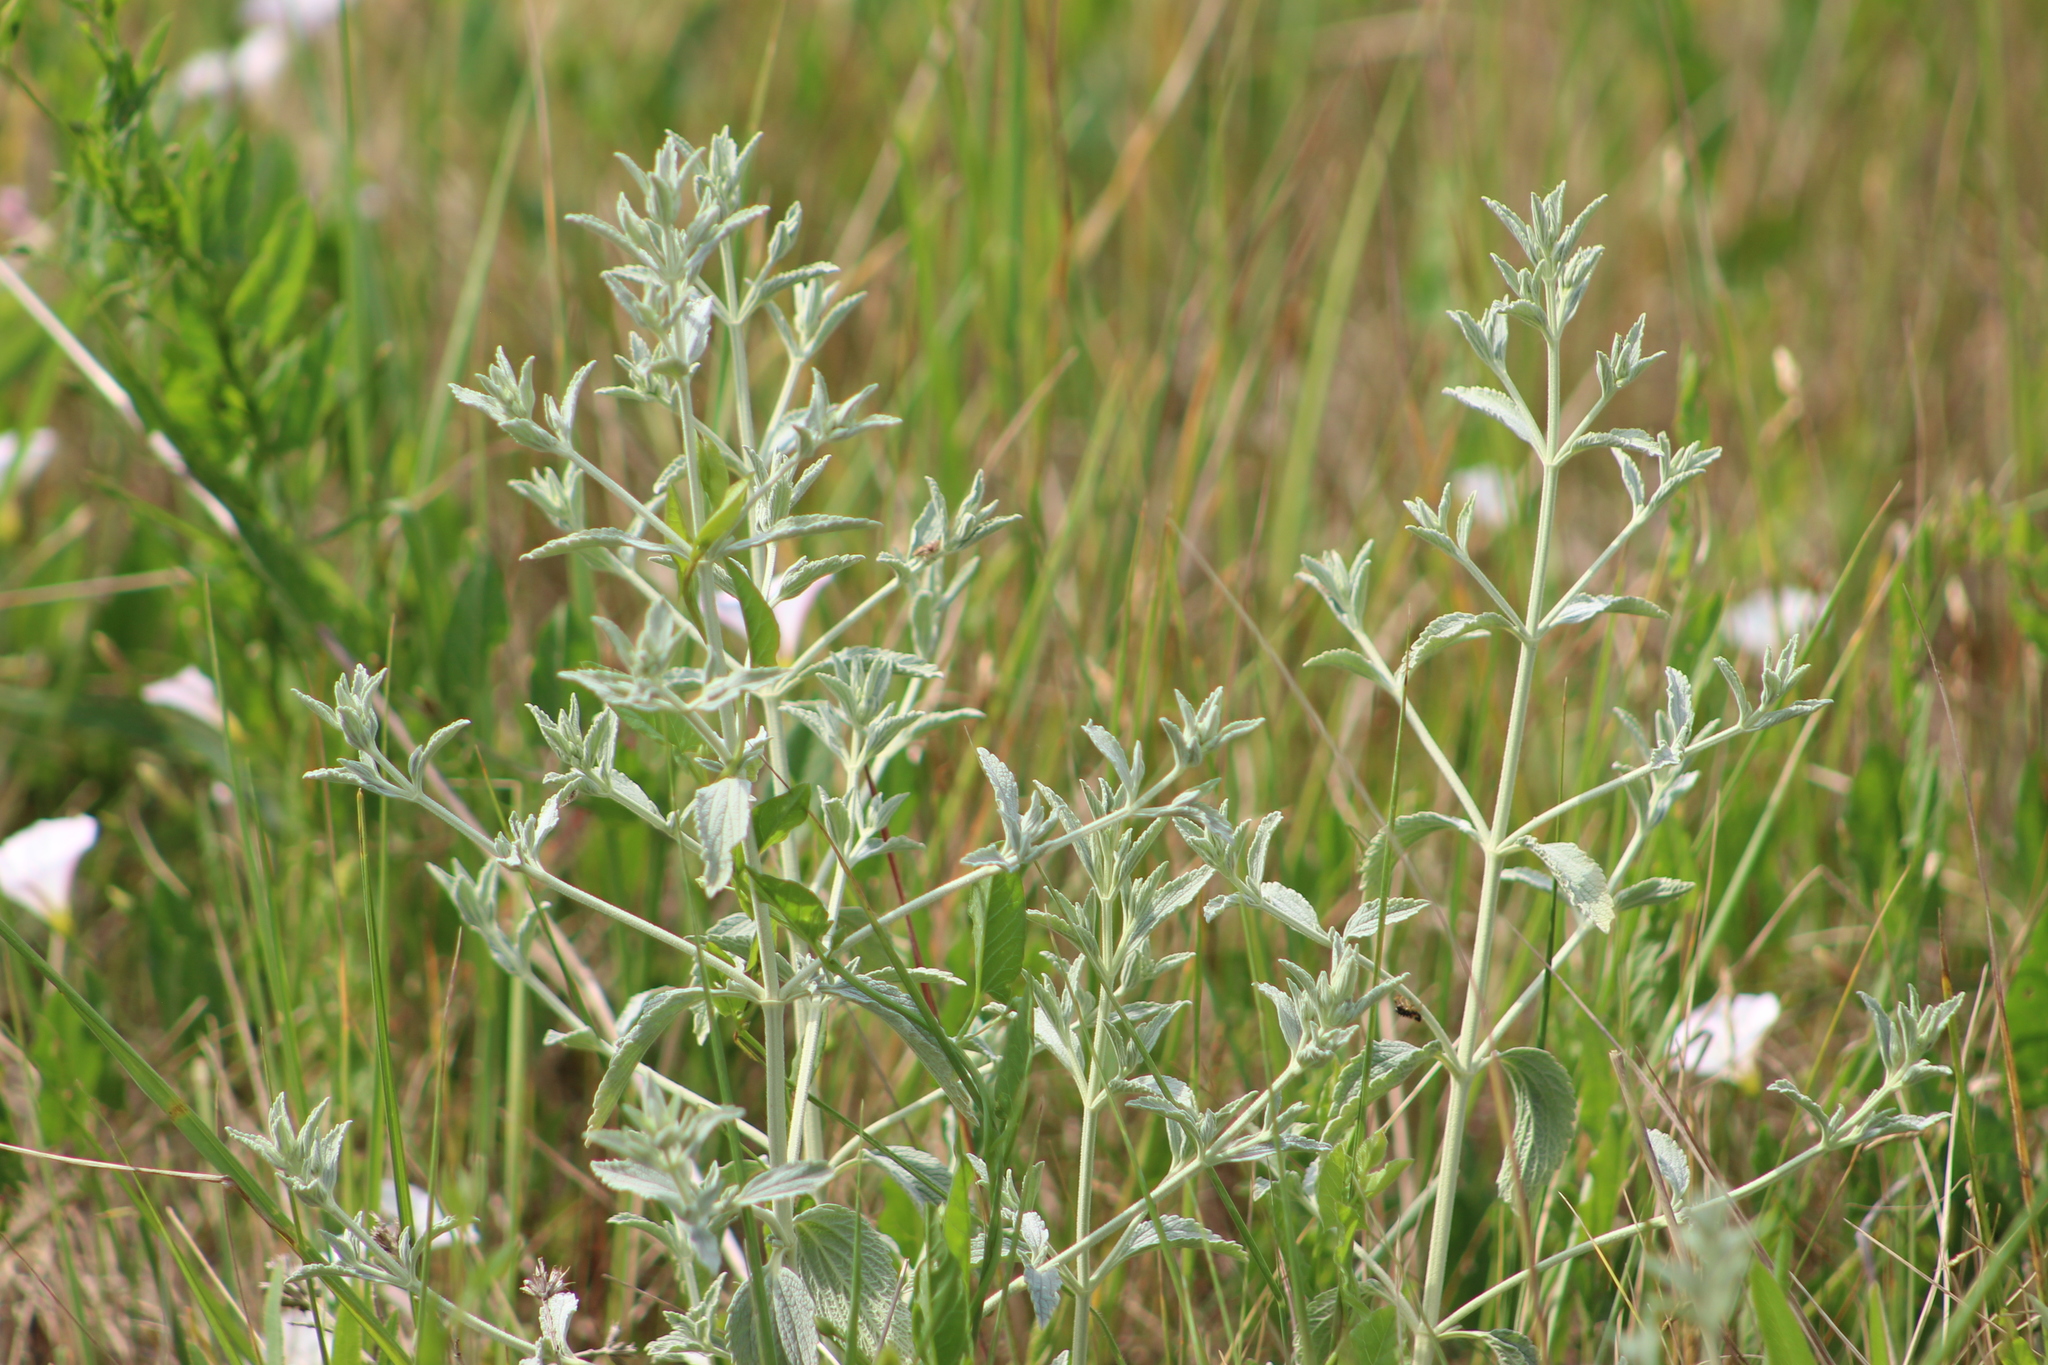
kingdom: Plantae
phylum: Tracheophyta
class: Magnoliopsida
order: Lamiales
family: Lamiaceae
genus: Marrubium
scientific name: Marrubium peregrinum
